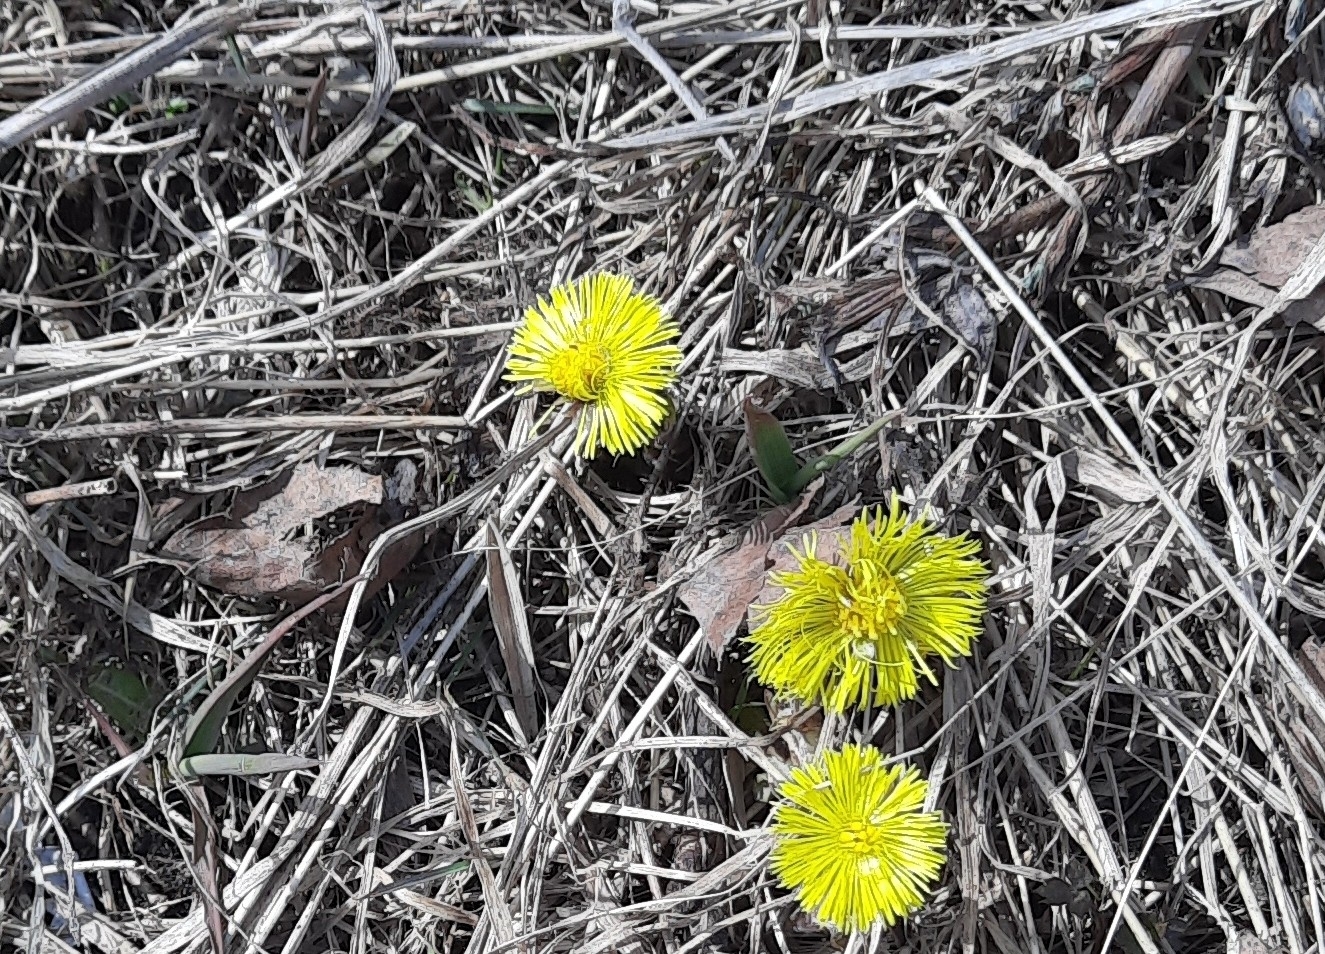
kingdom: Plantae
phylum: Tracheophyta
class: Magnoliopsida
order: Asterales
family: Asteraceae
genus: Tussilago
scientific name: Tussilago farfara
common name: Coltsfoot
